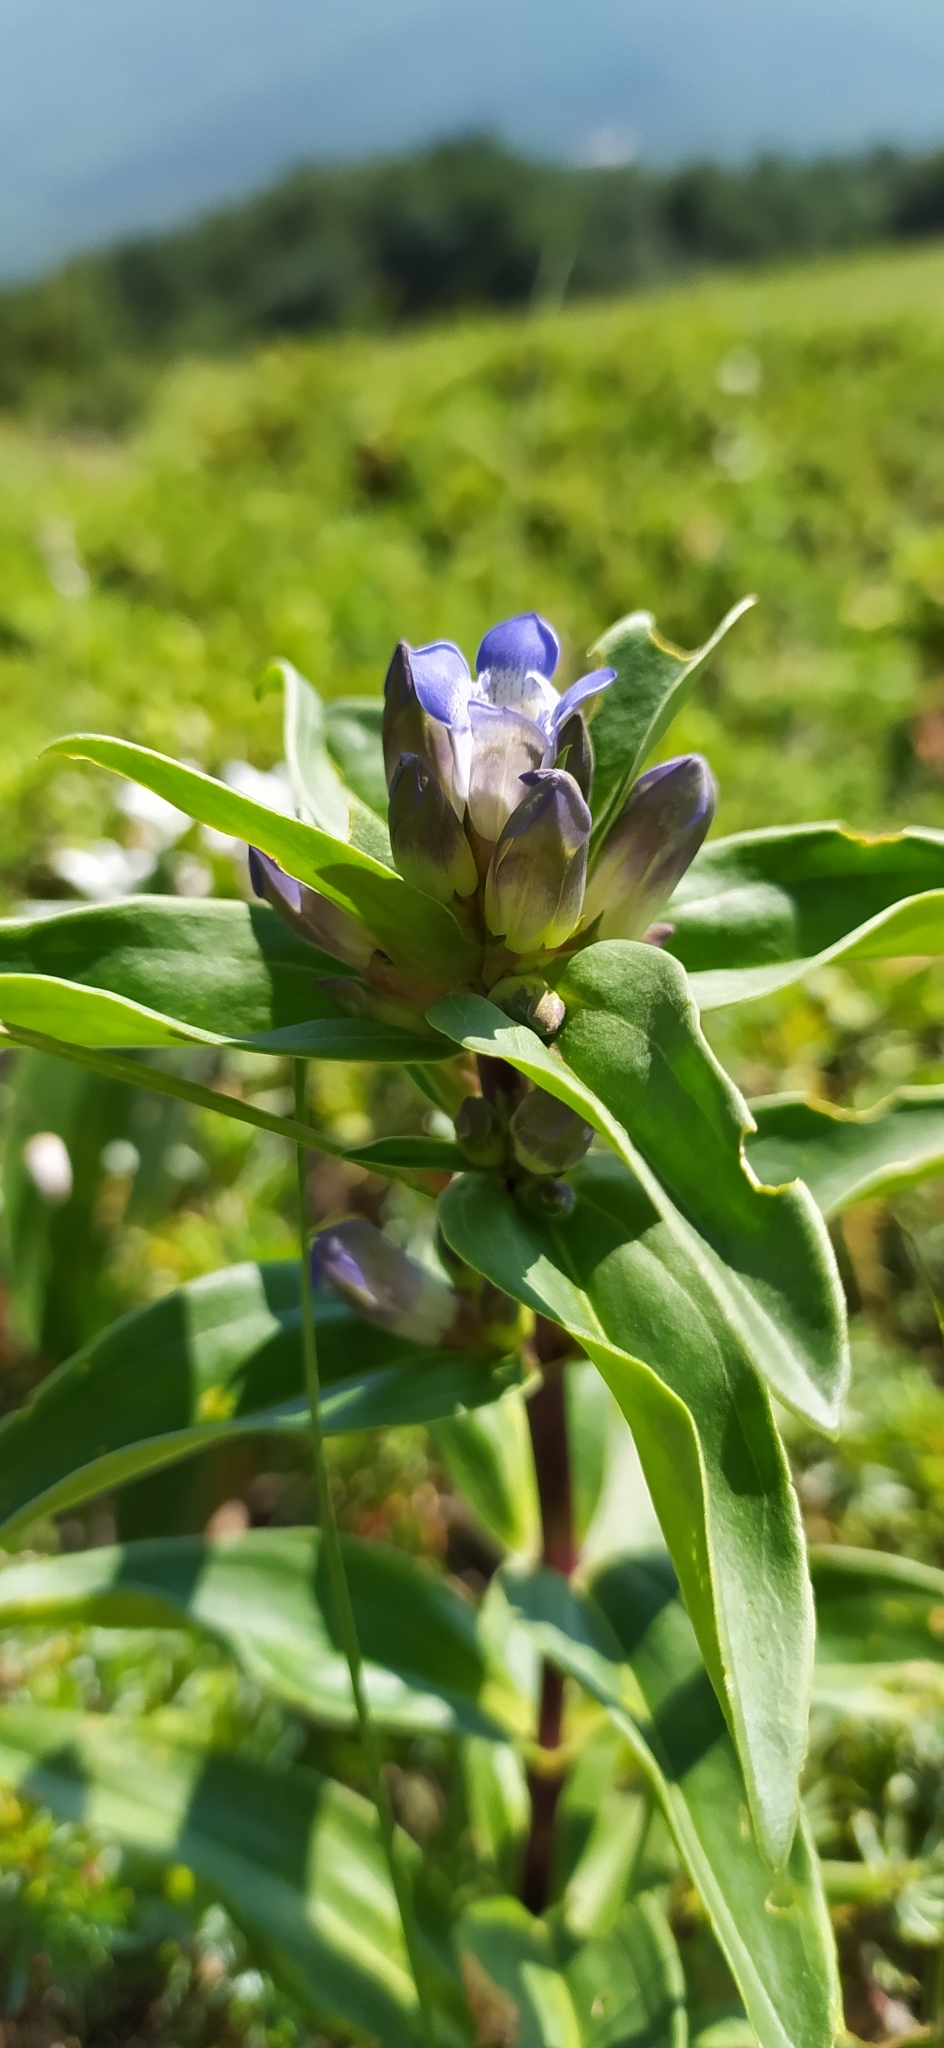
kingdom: Plantae
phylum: Tracheophyta
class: Magnoliopsida
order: Gentianales
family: Gentianaceae
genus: Gentiana
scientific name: Gentiana cruciata
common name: Cross gentian
